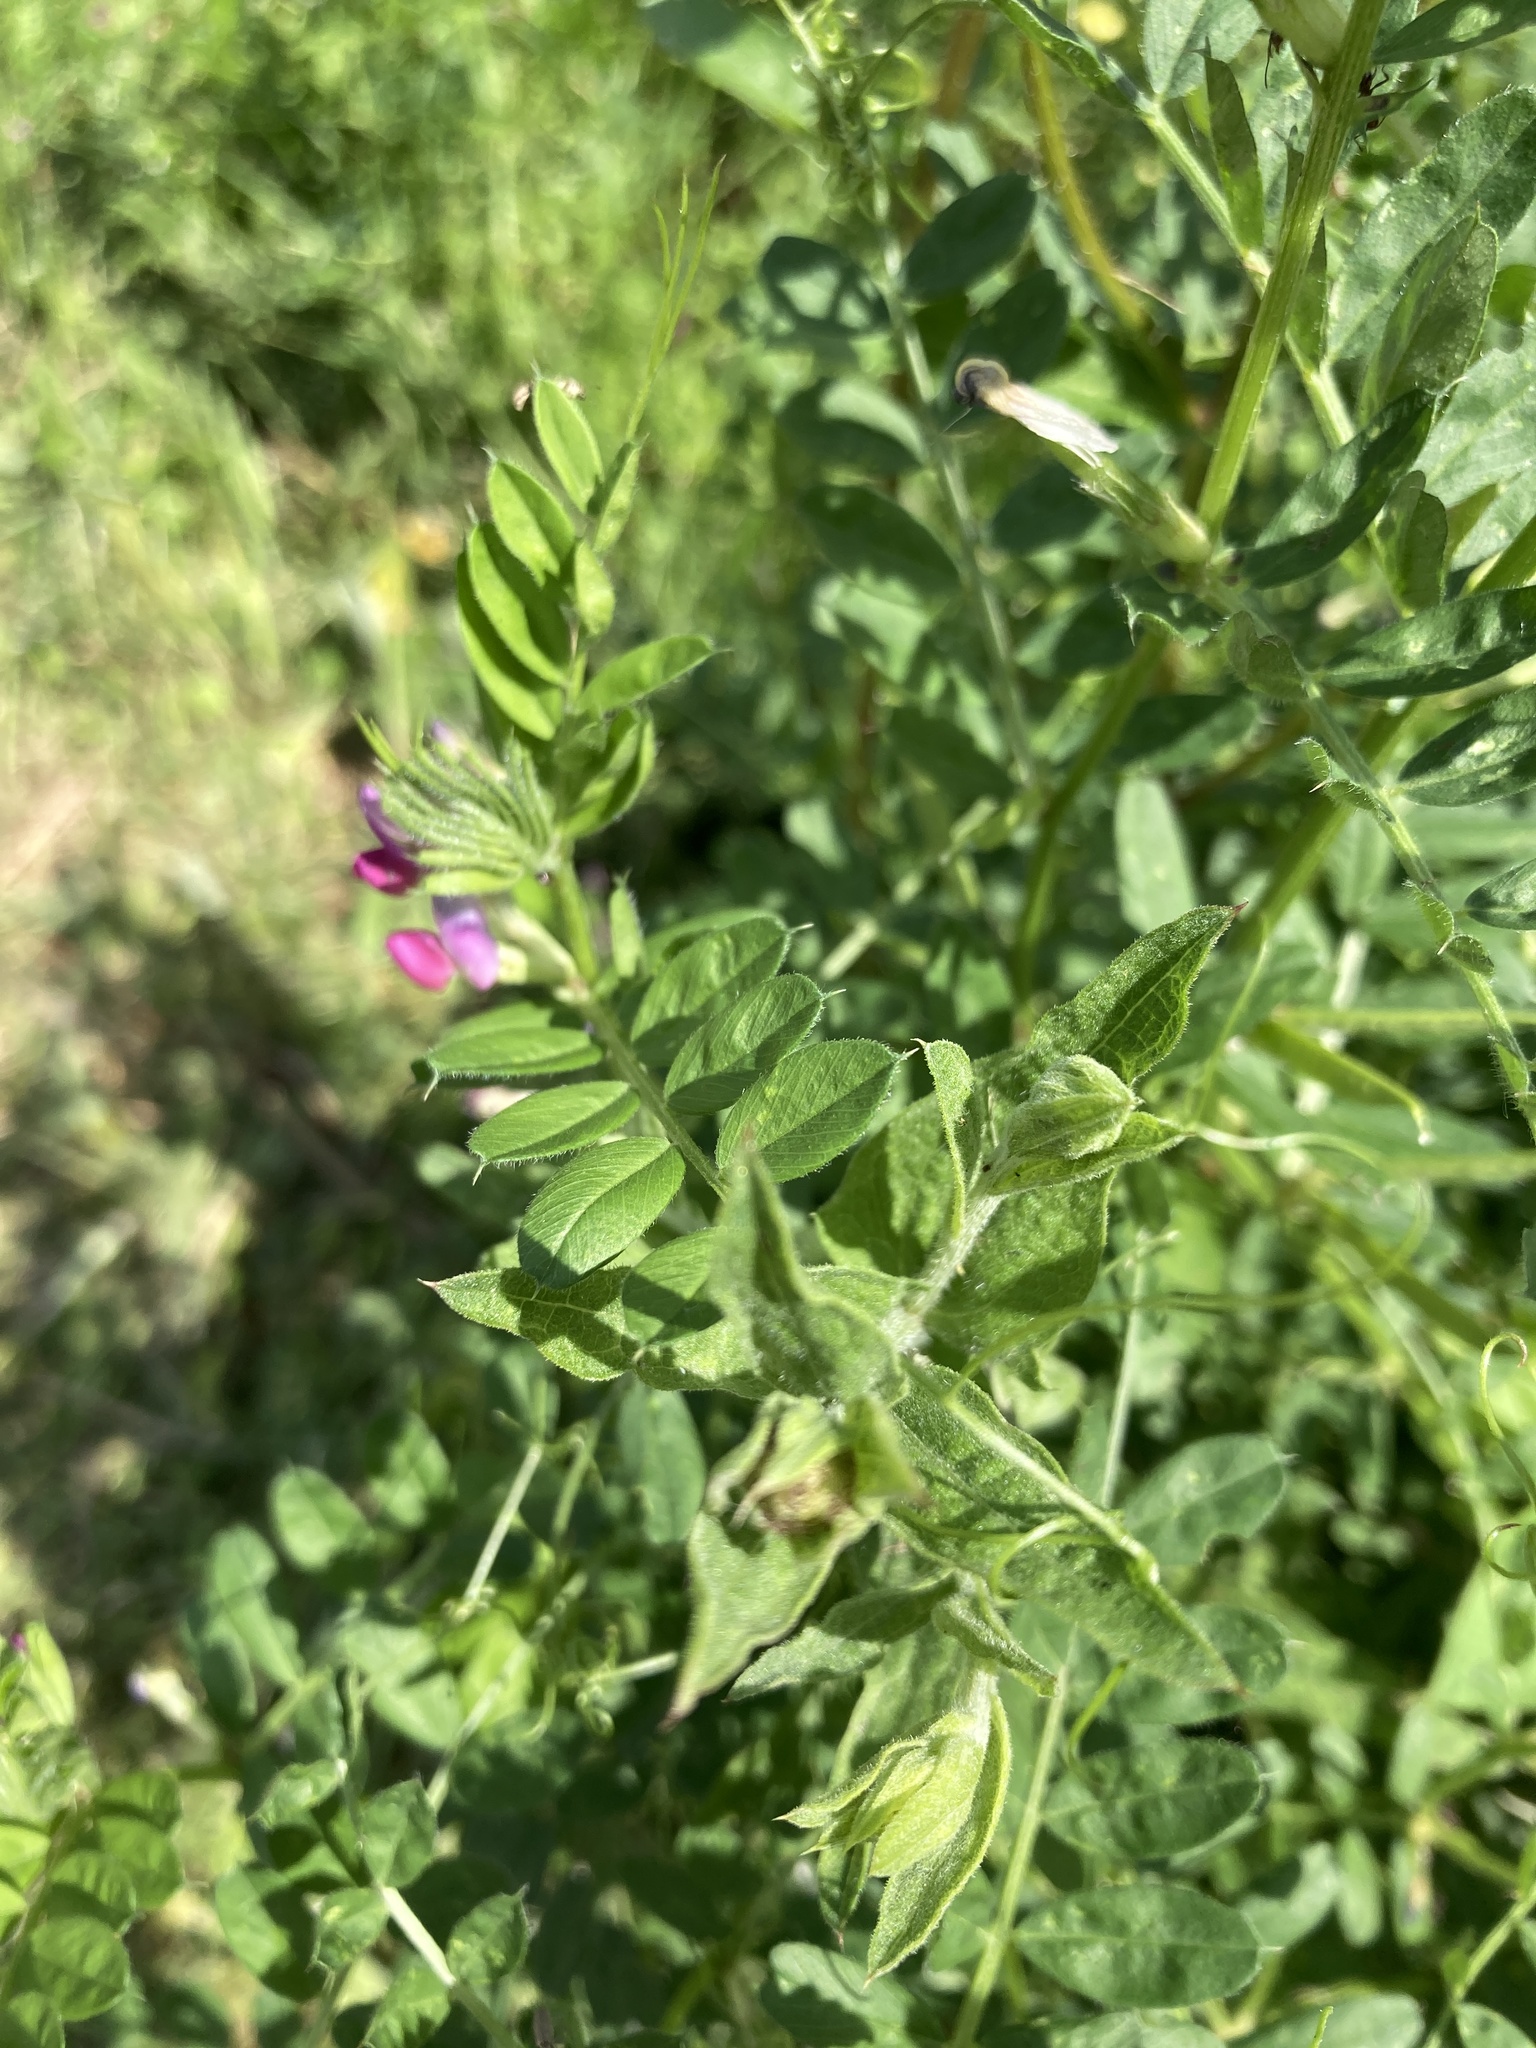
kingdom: Plantae
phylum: Tracheophyta
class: Magnoliopsida
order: Fabales
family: Fabaceae
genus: Vicia
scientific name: Vicia sativa
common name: Garden vetch
